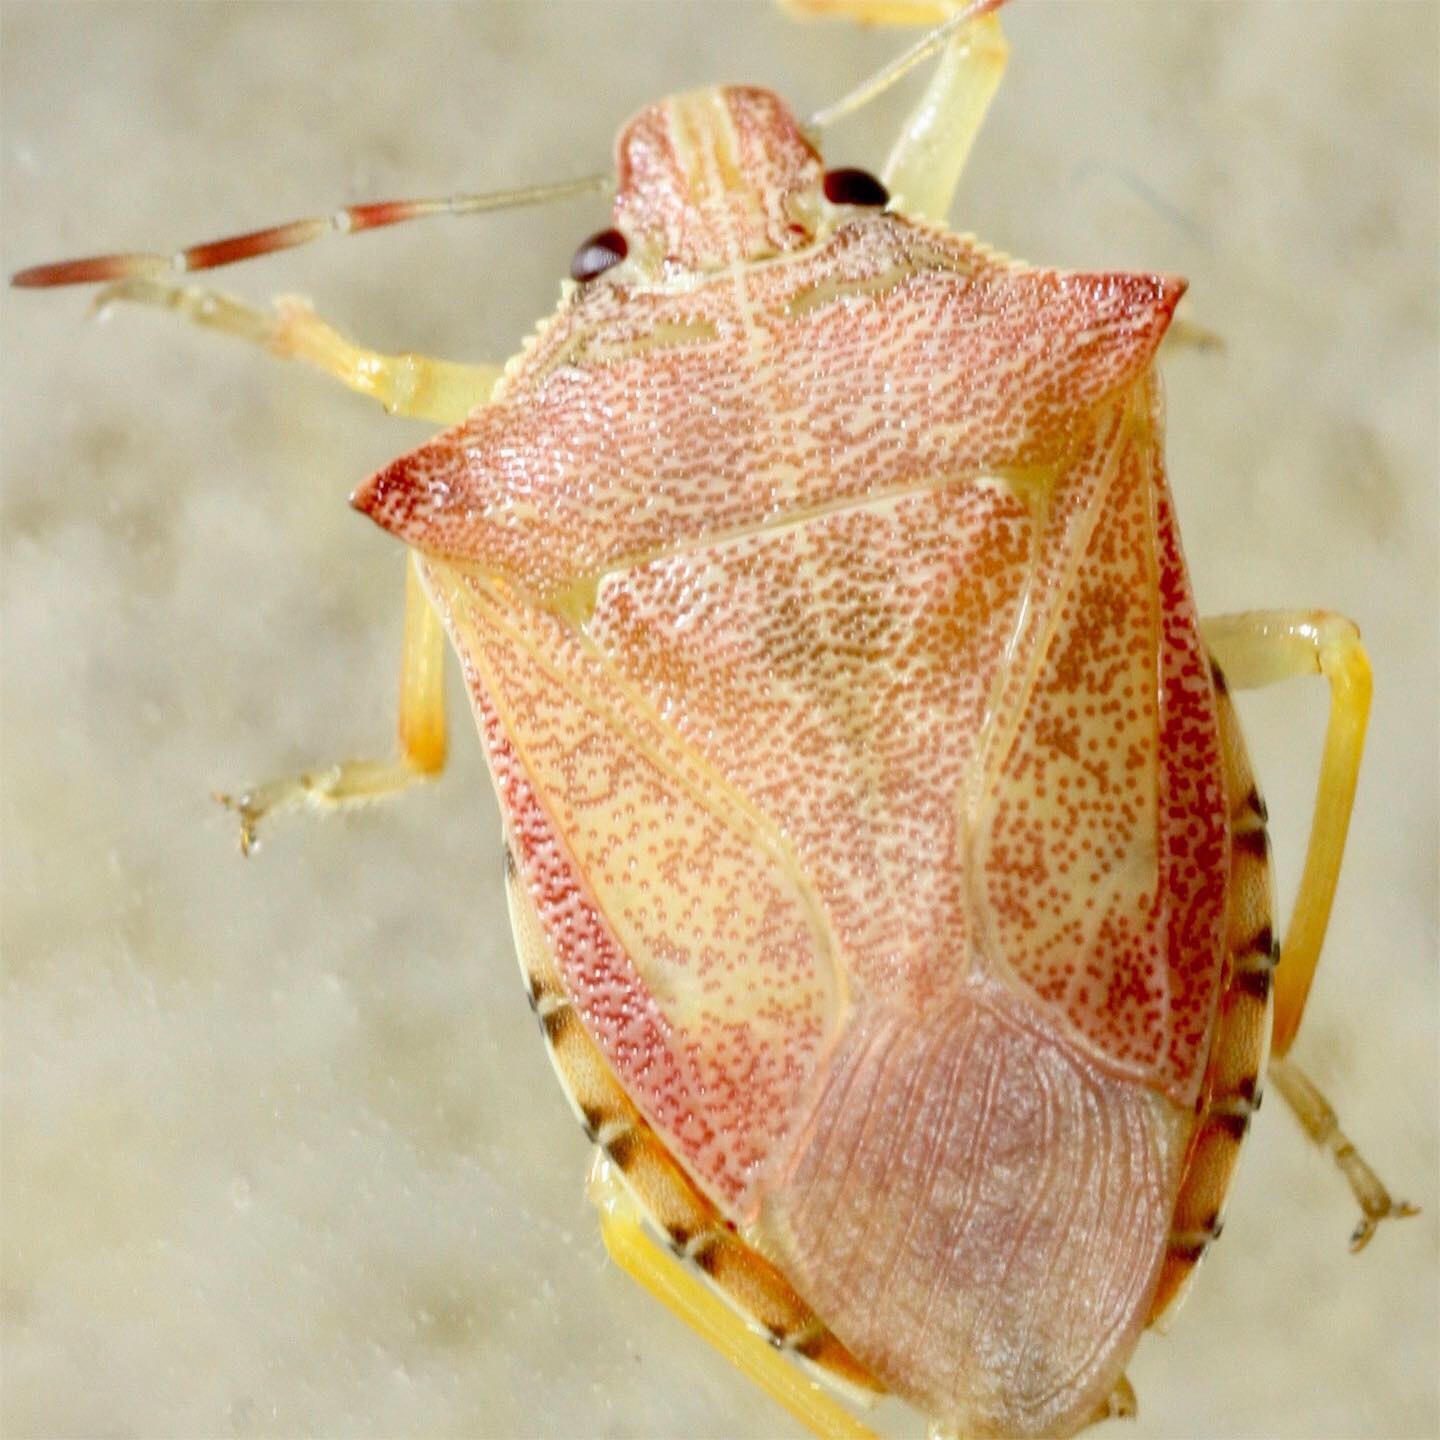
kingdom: Animalia
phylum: Arthropoda
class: Insecta
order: Hemiptera
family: Pentatomidae
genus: Podisus
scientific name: Podisus maculiventris
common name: Spined soldier bug
